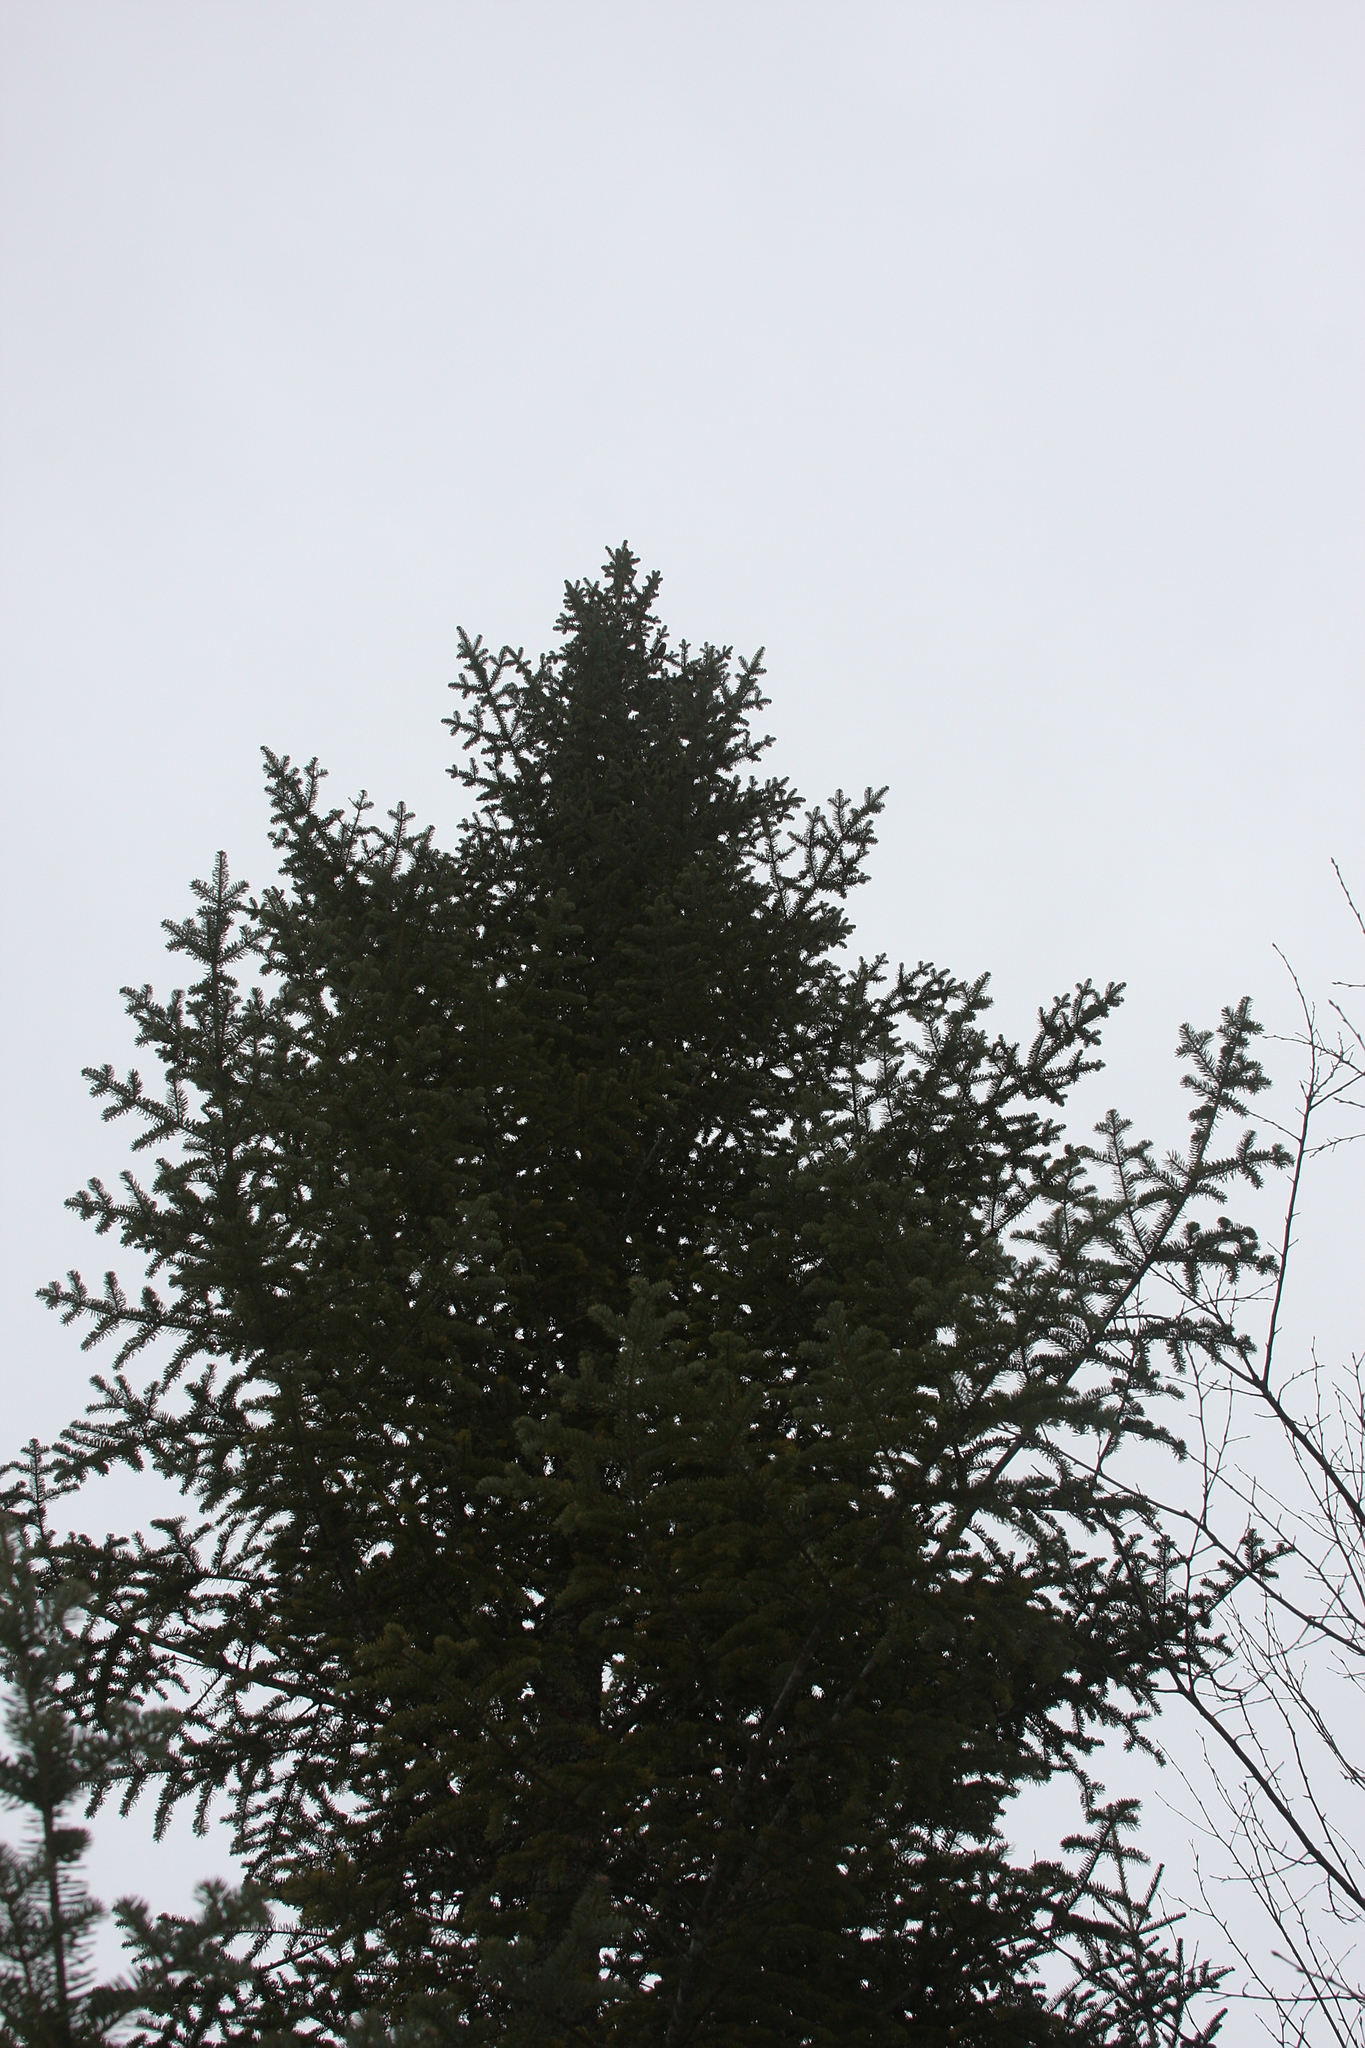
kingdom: Plantae
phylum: Tracheophyta
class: Pinopsida
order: Pinales
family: Pinaceae
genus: Abies
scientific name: Abies balsamea
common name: Balsam fir
